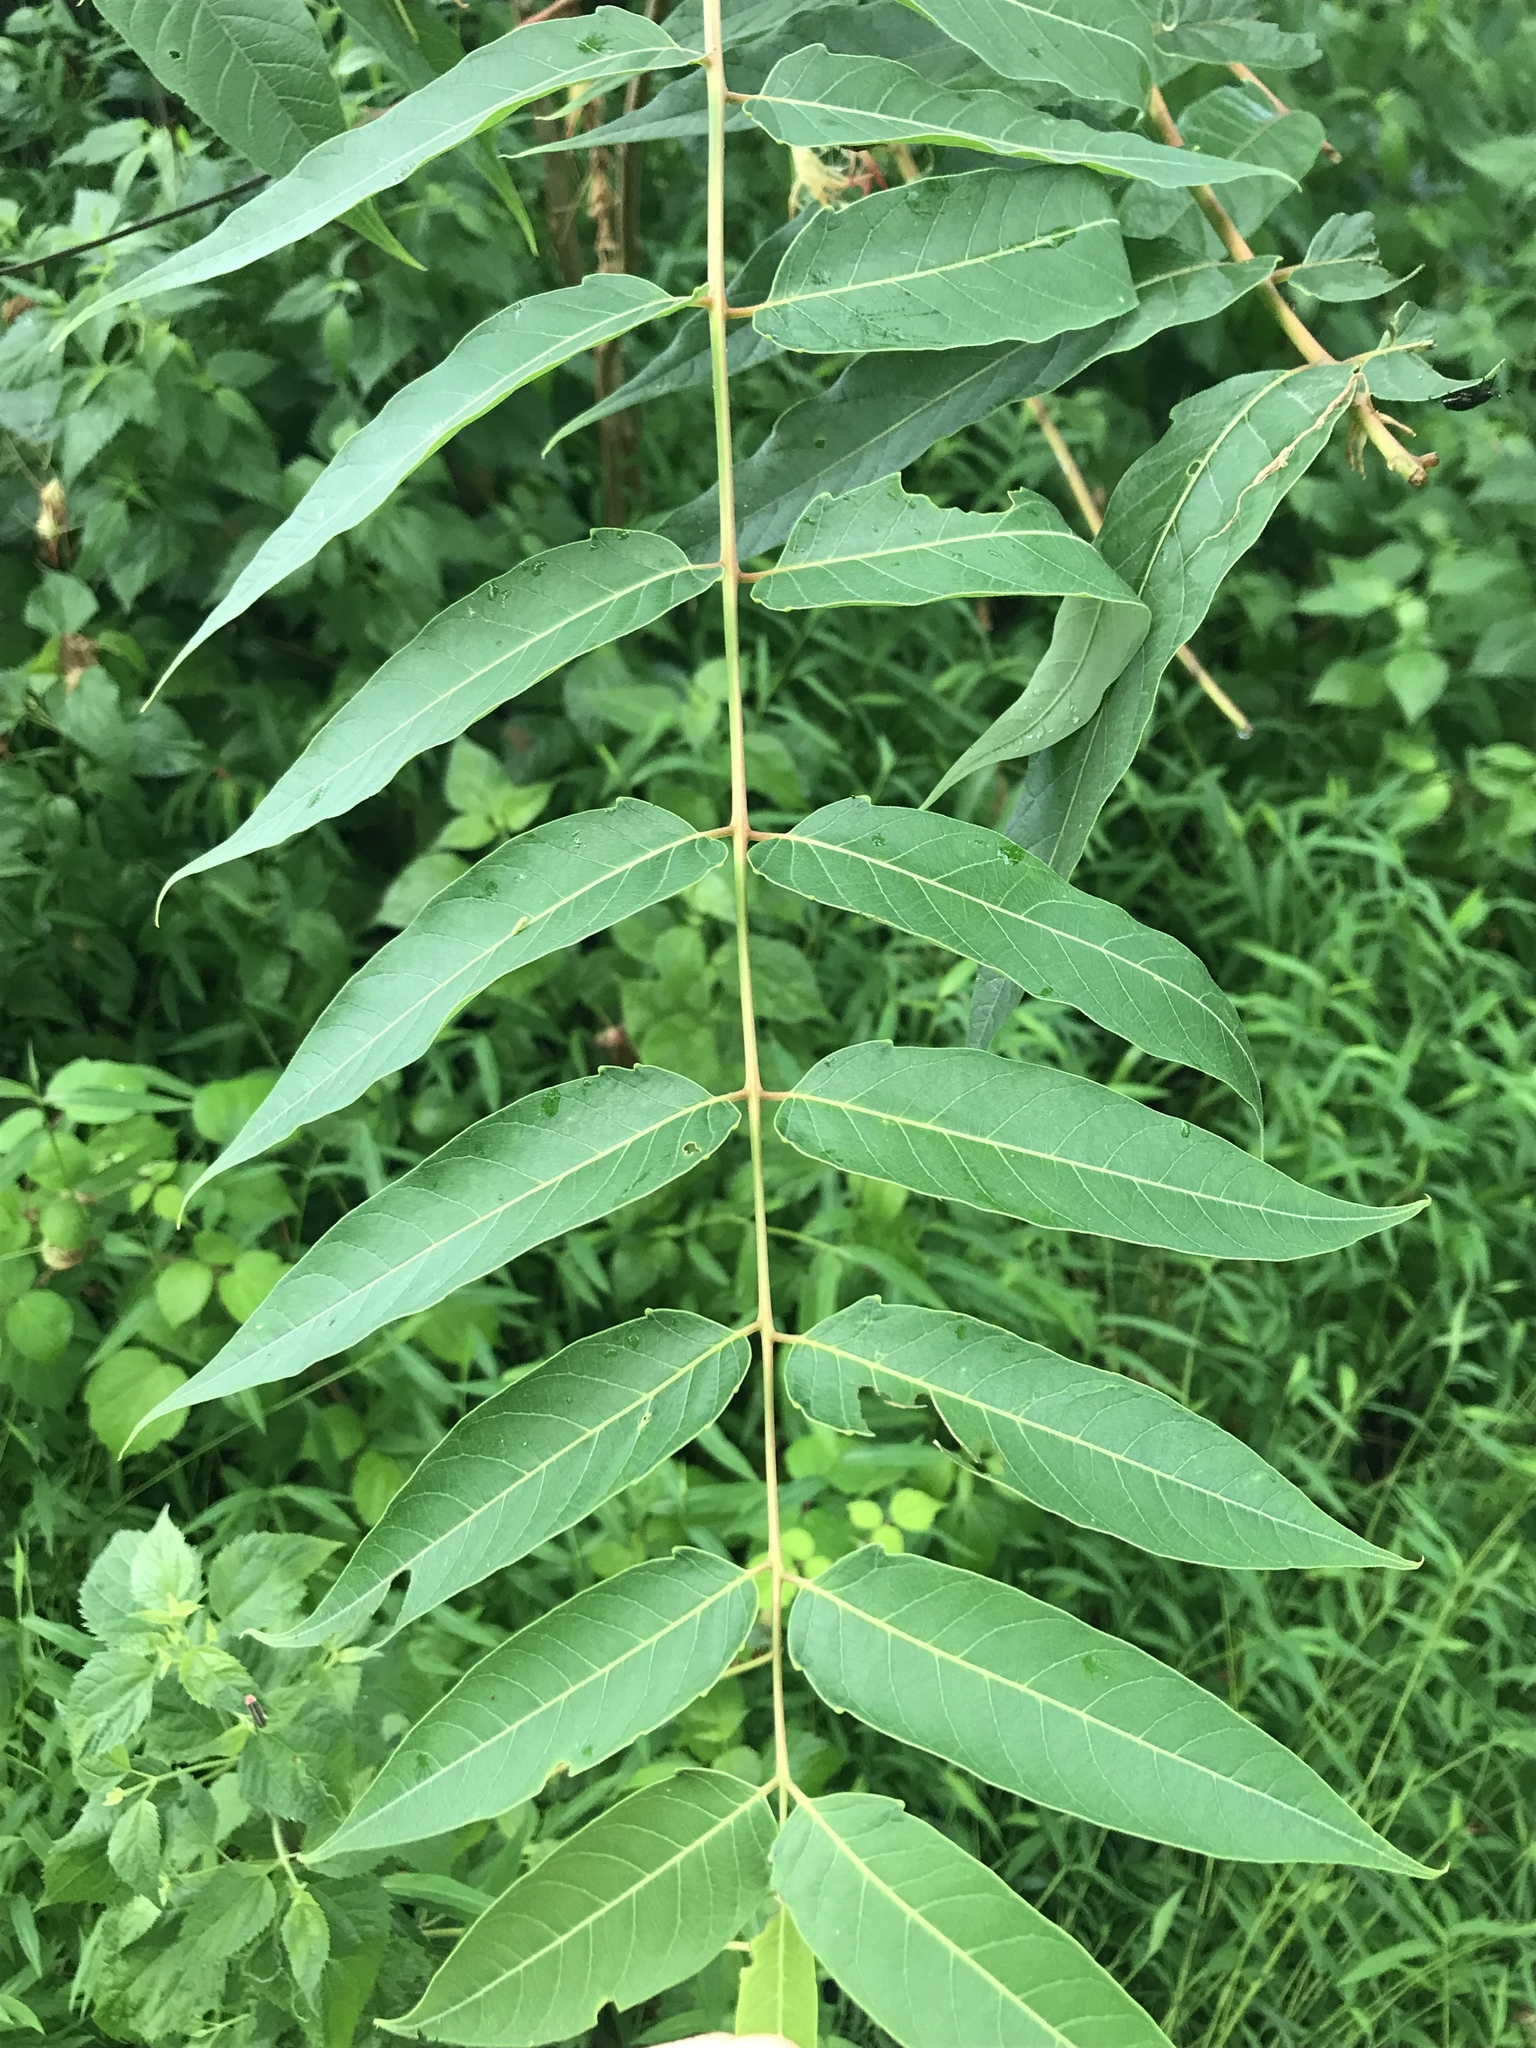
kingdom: Plantae
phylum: Tracheophyta
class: Magnoliopsida
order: Sapindales
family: Simaroubaceae
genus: Ailanthus
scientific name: Ailanthus altissima
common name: Tree-of-heaven
